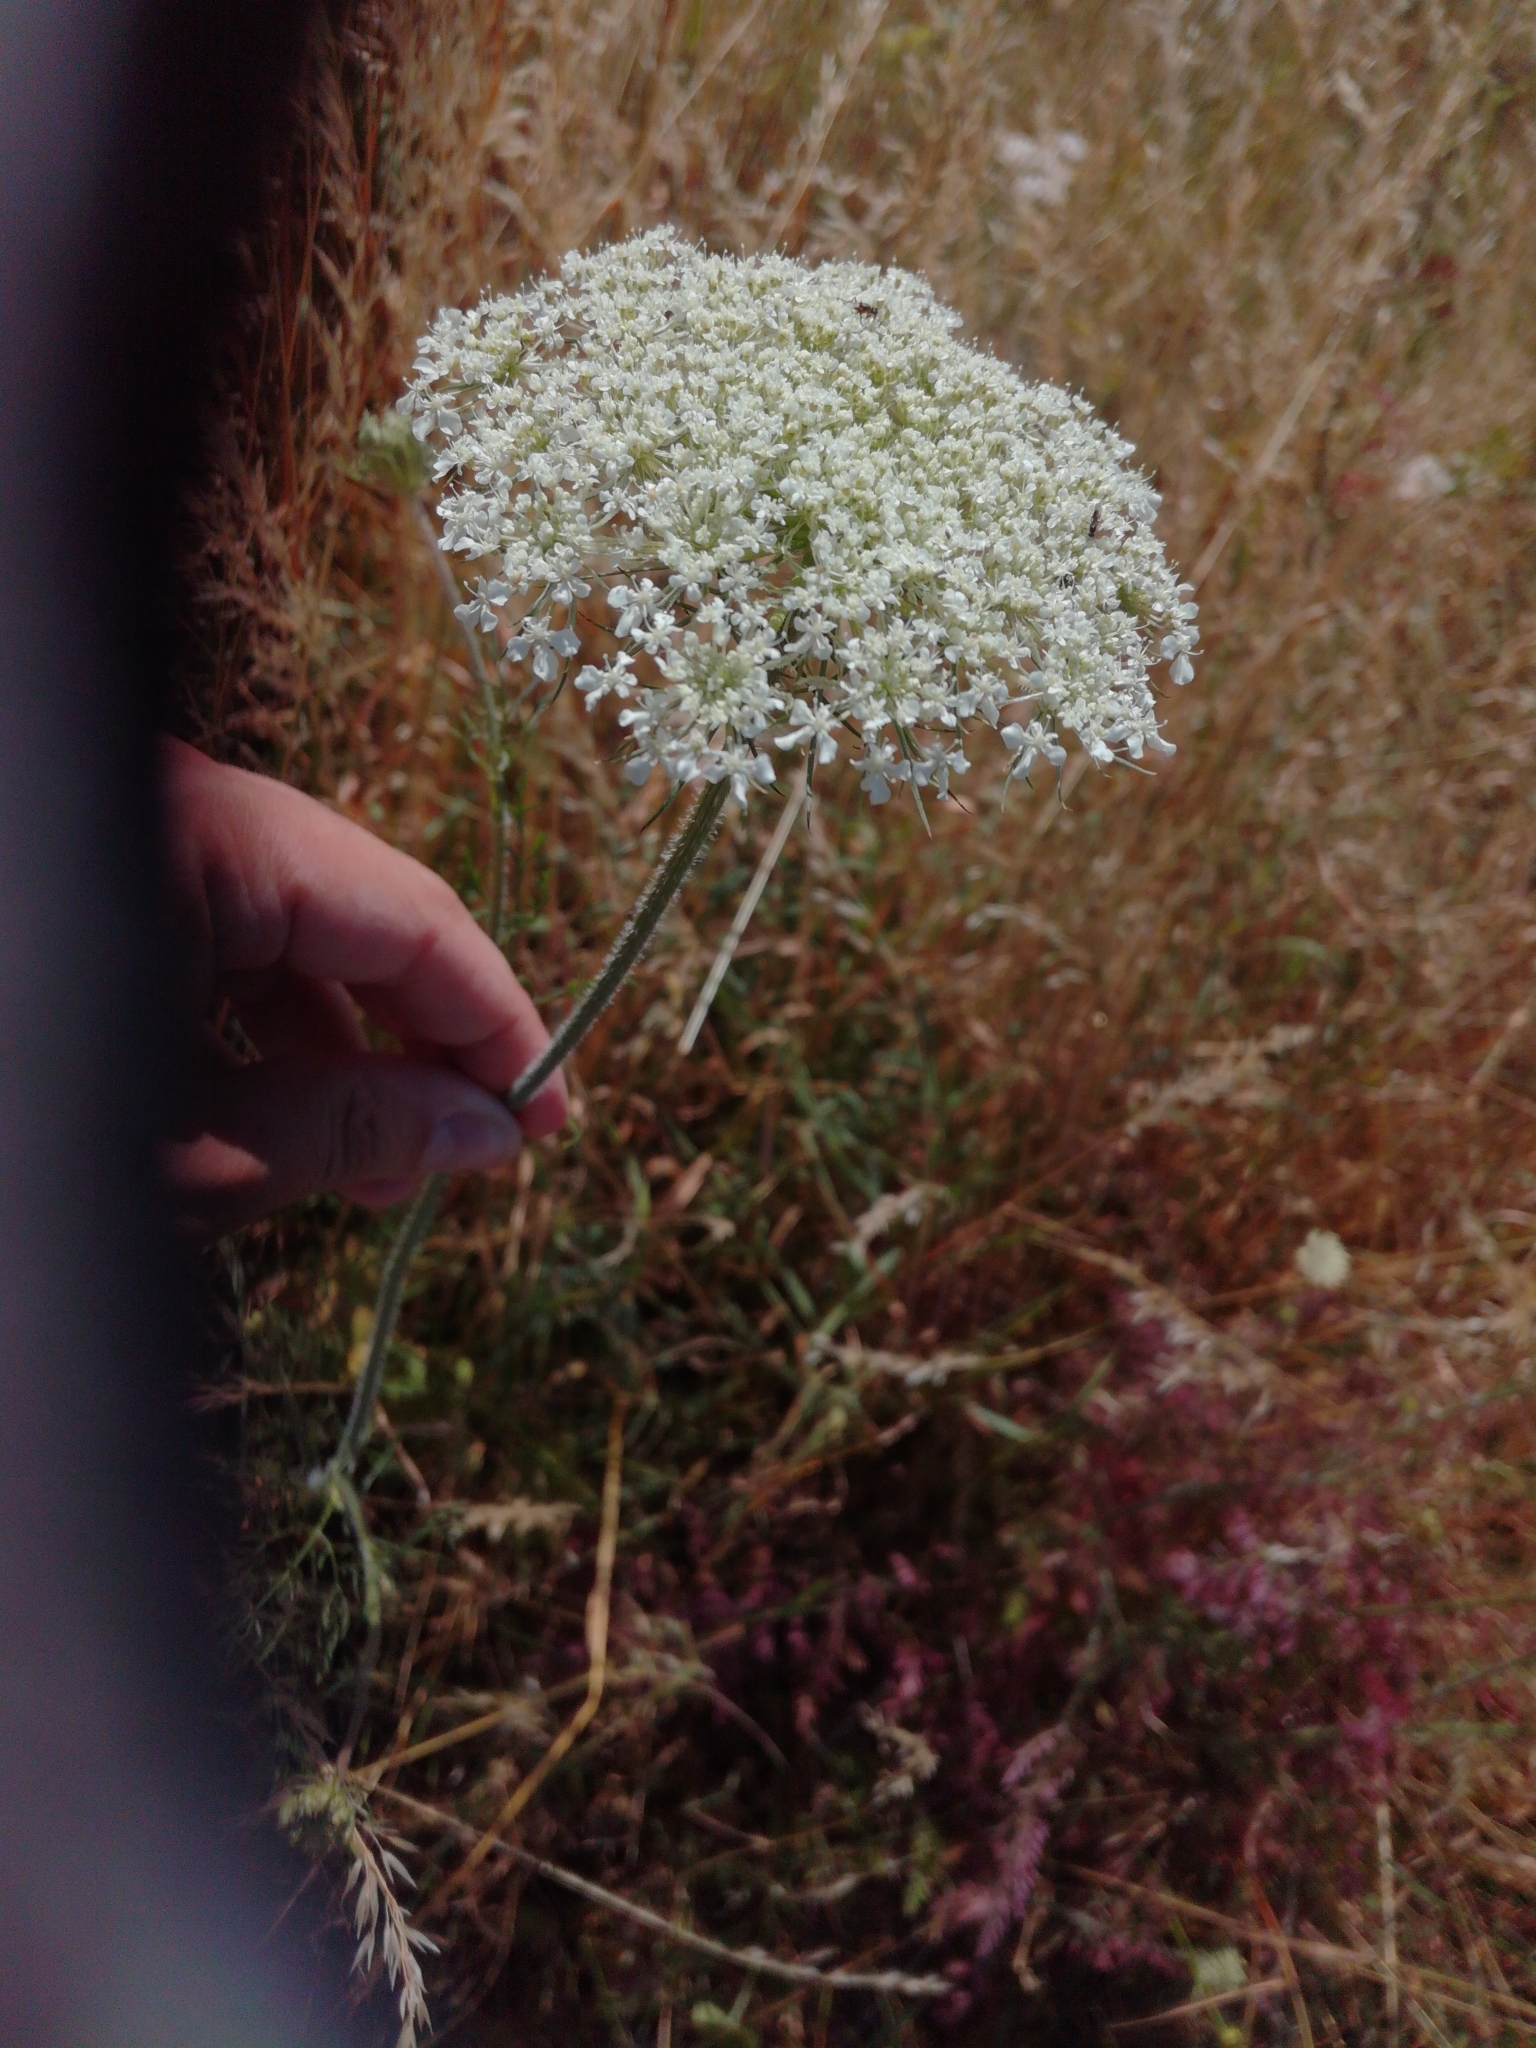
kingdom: Plantae
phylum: Tracheophyta
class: Magnoliopsida
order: Apiales
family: Apiaceae
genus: Daucus
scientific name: Daucus carota
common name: Wild carrot
